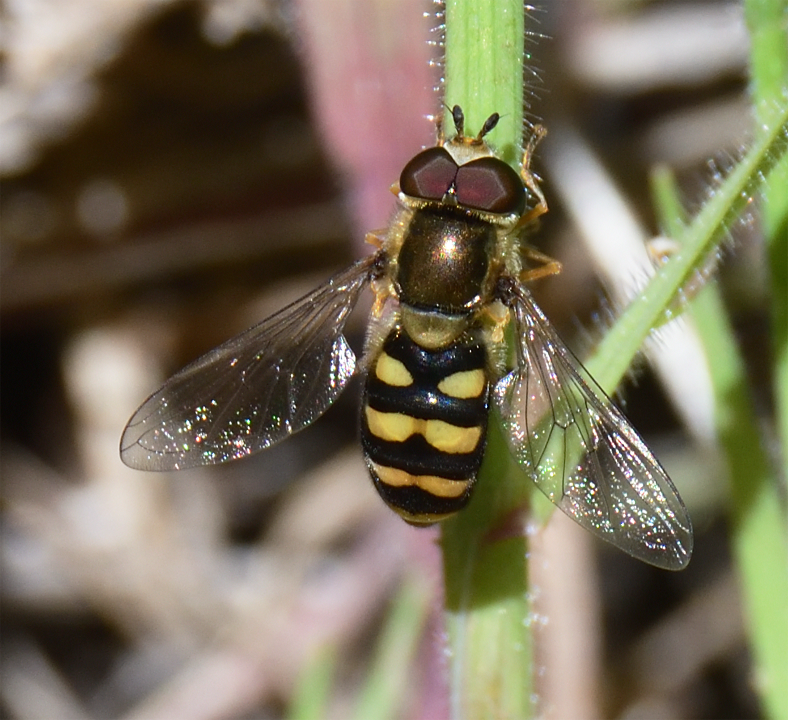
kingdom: Animalia
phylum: Arthropoda
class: Insecta
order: Diptera
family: Syrphidae
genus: Eupeodes
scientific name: Eupeodes fumipennis
